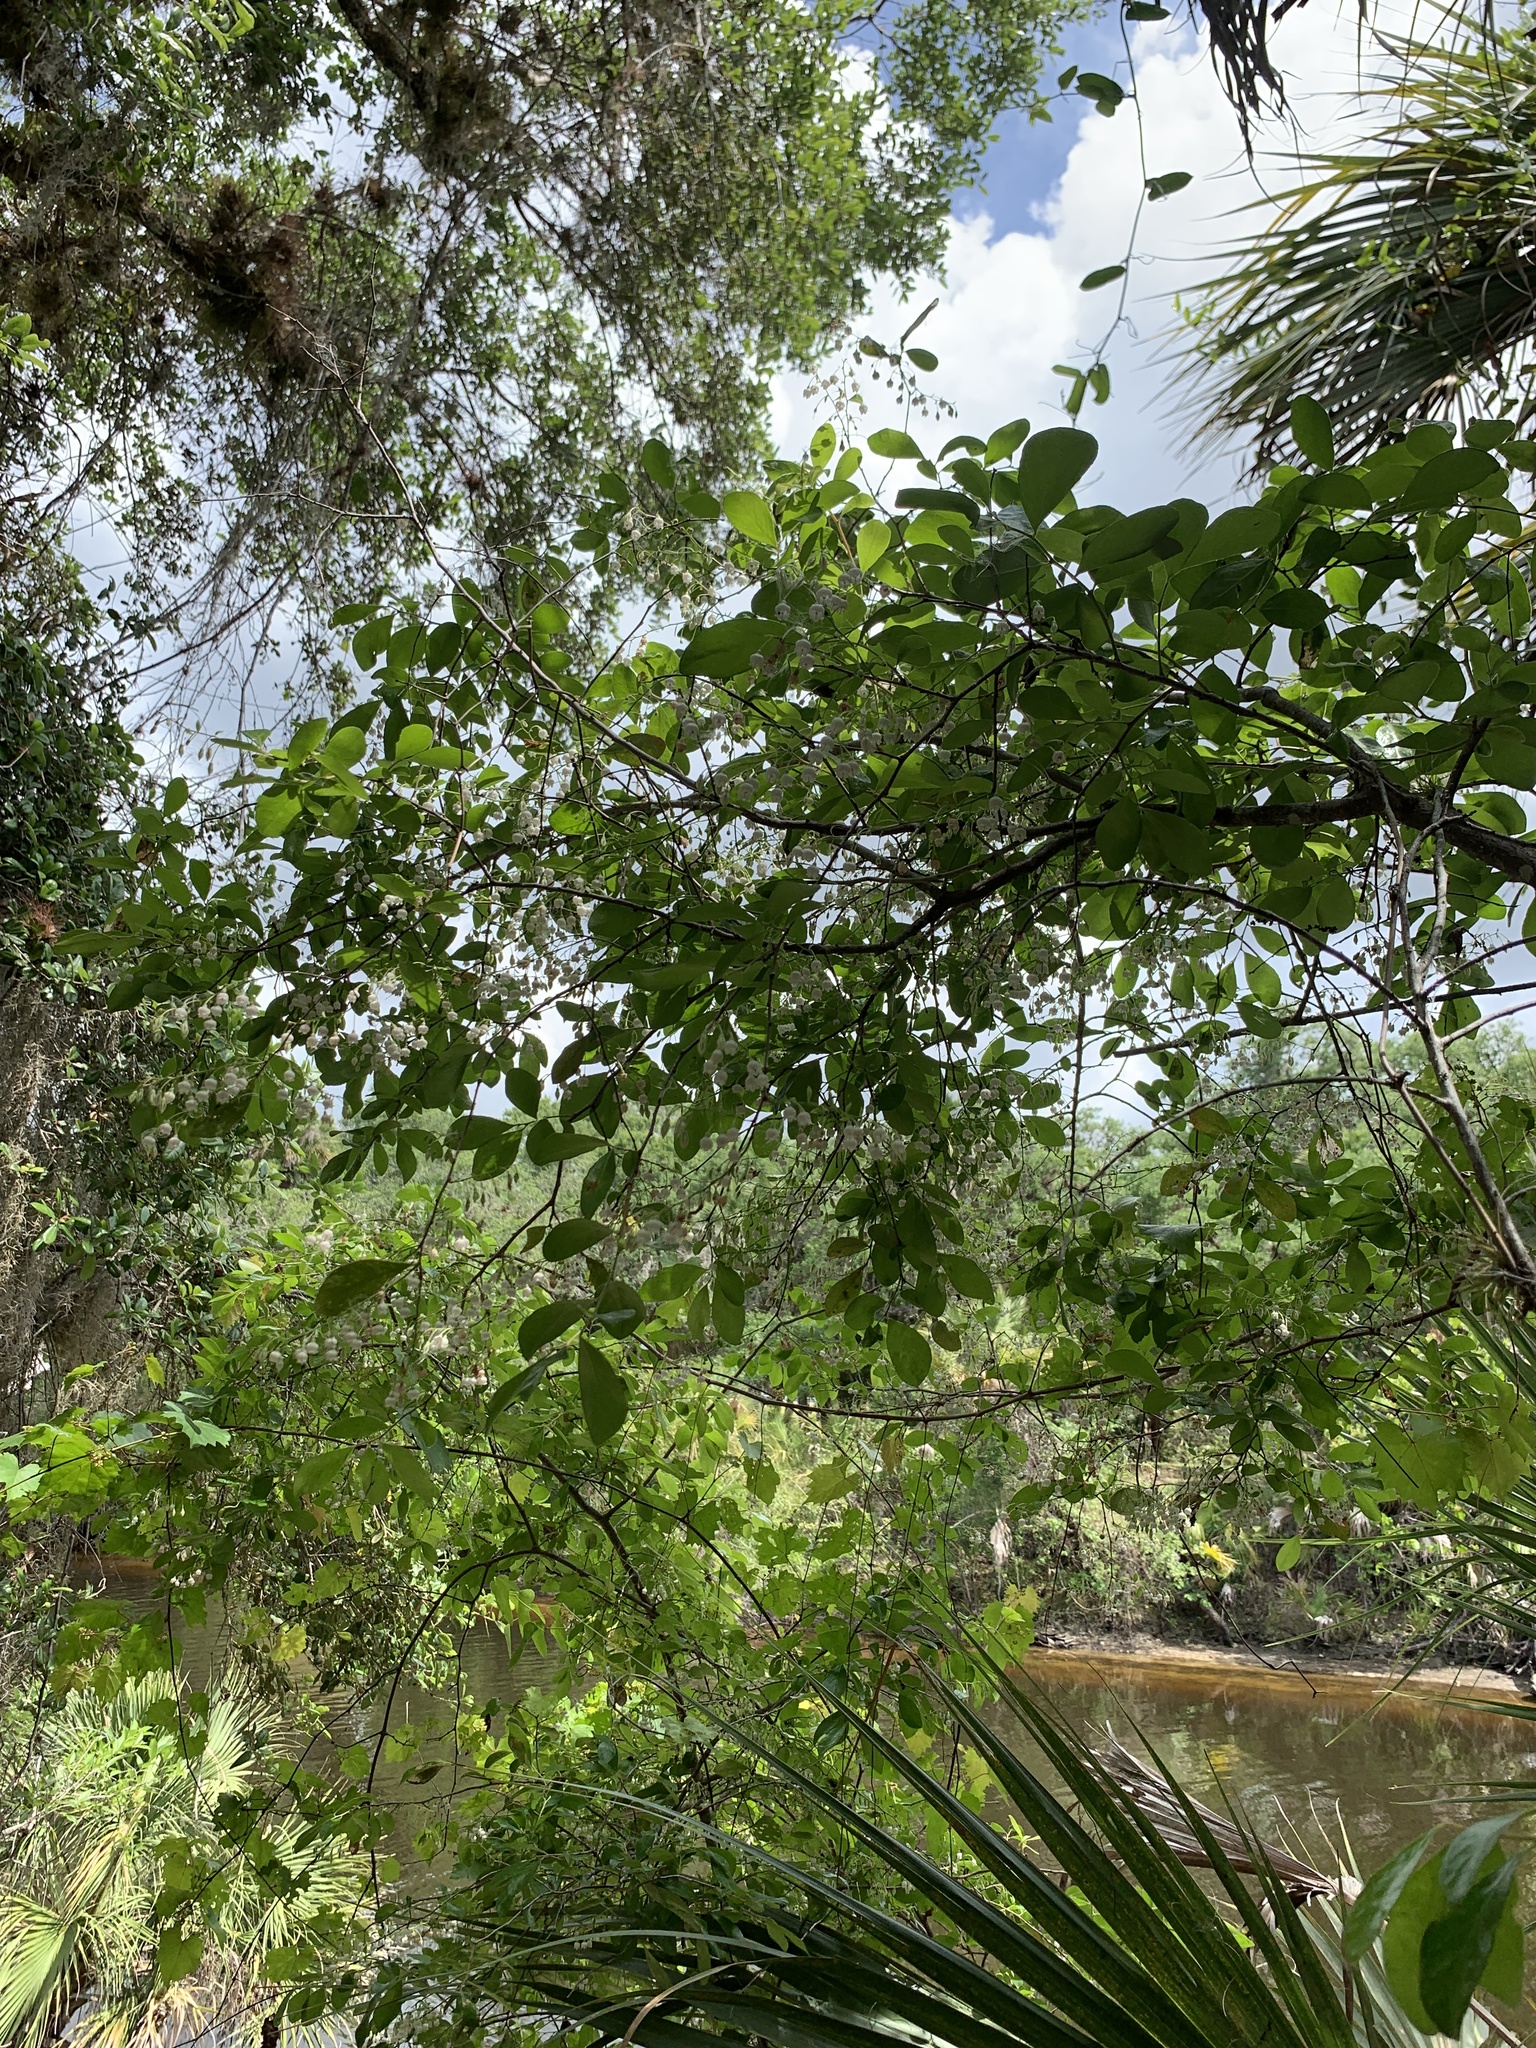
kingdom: Plantae
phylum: Tracheophyta
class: Magnoliopsida
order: Ericales
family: Ericaceae
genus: Vaccinium
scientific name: Vaccinium arboreum
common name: Farkleberry
